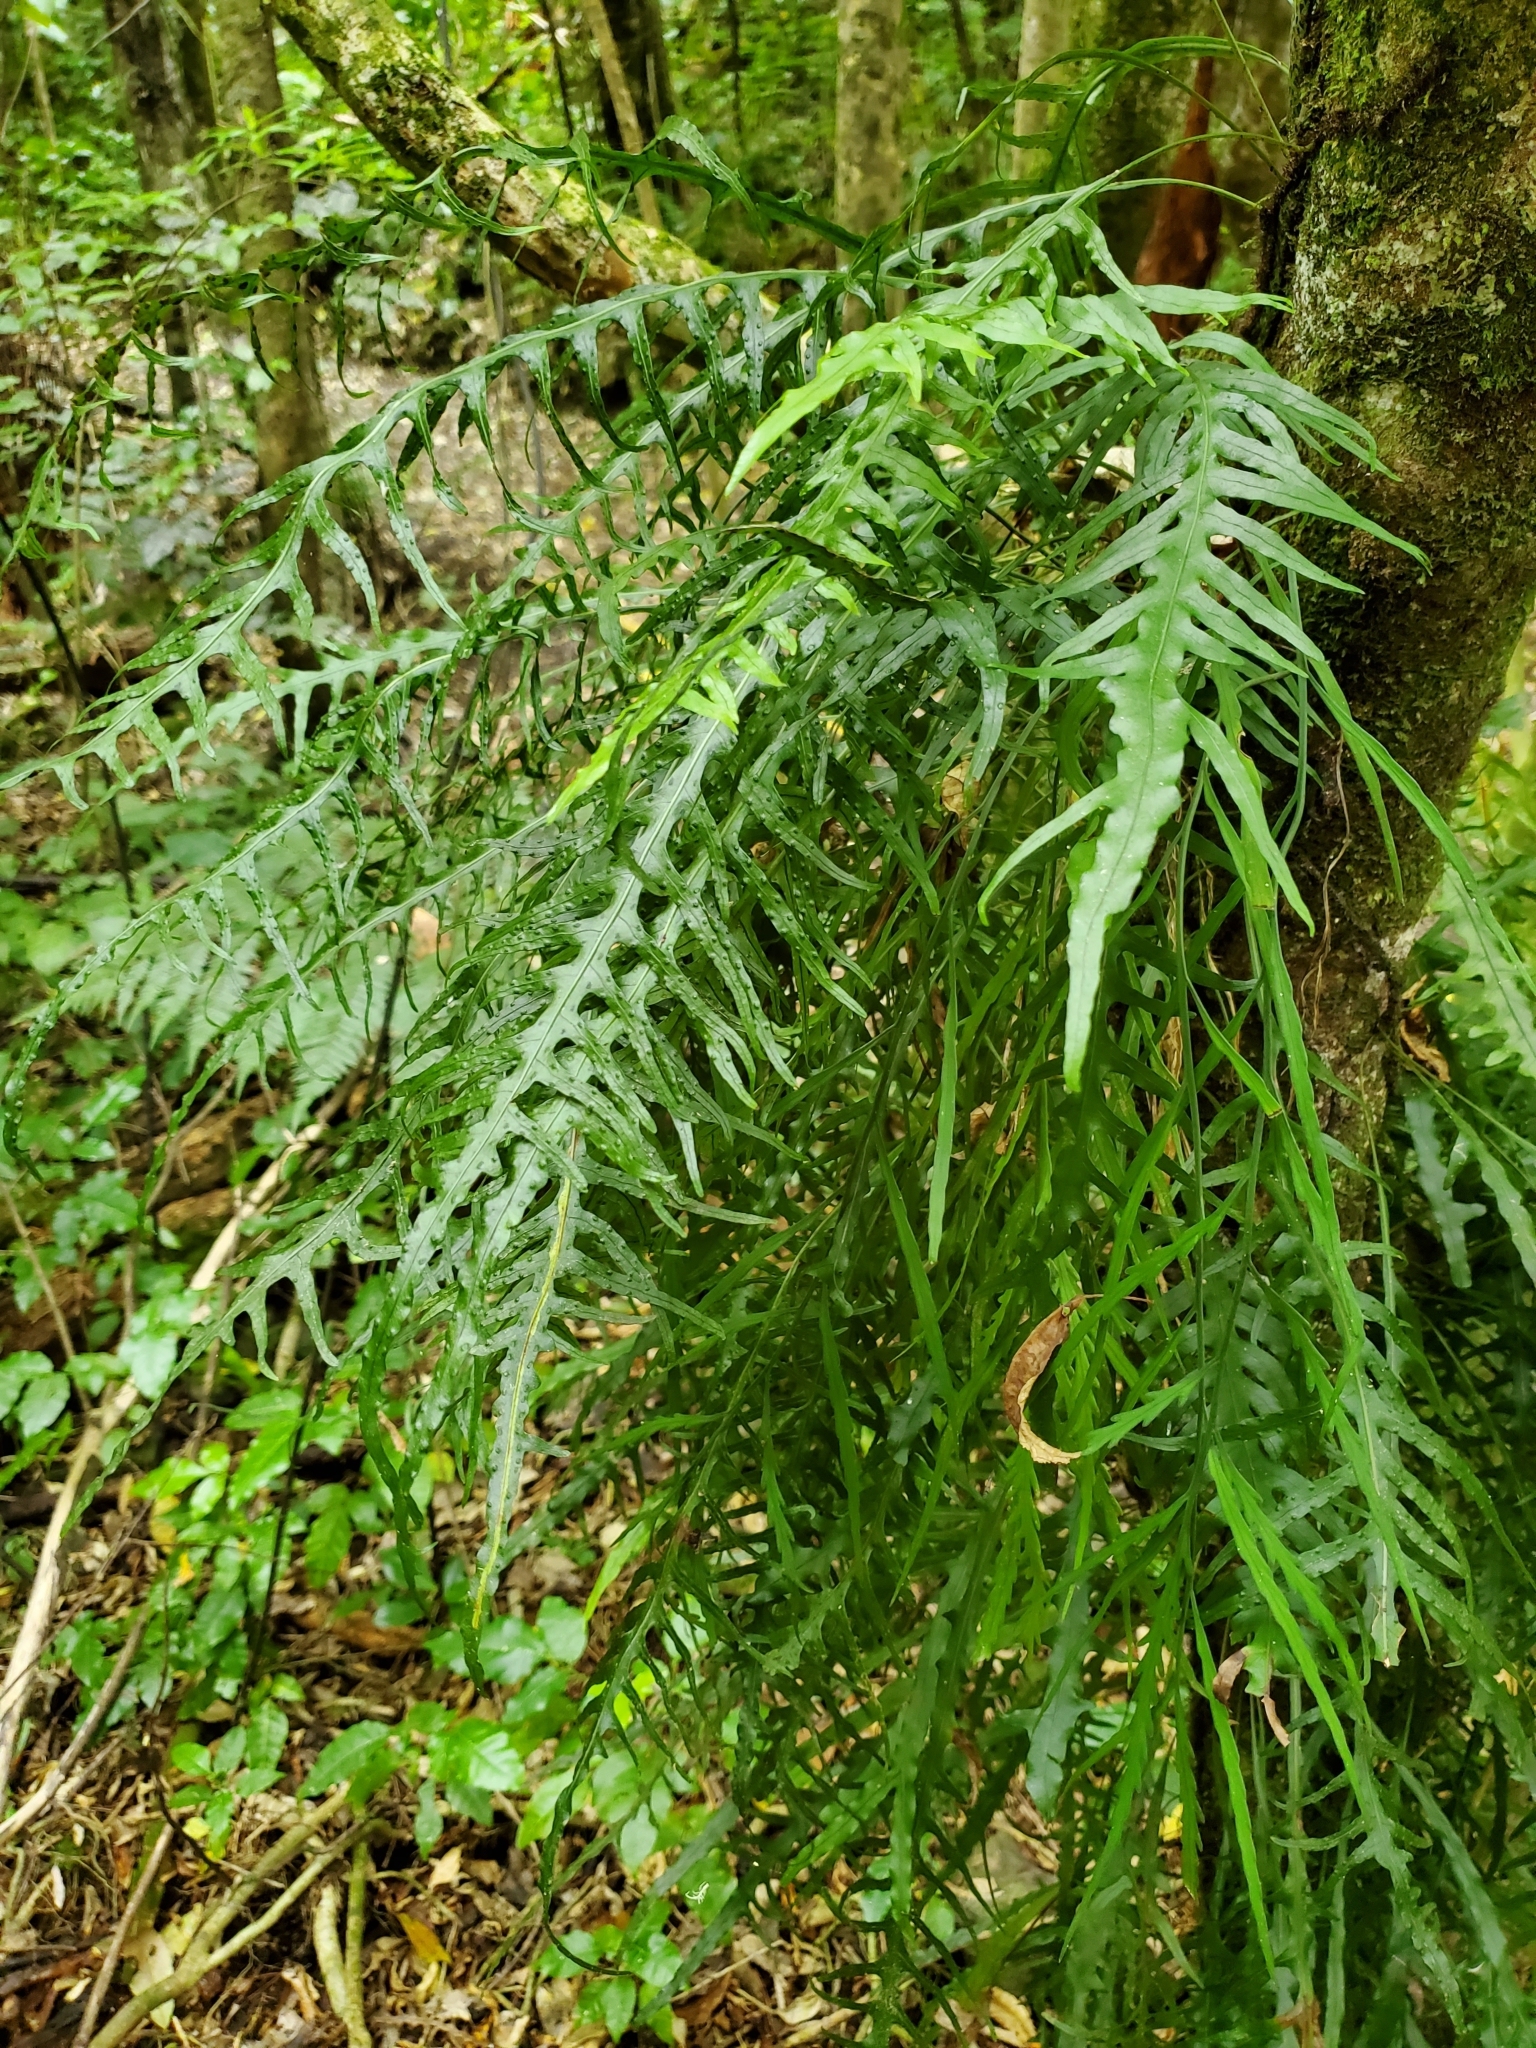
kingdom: Plantae
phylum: Tracheophyta
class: Polypodiopsida
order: Polypodiales
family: Polypodiaceae
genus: Lecanopteris
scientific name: Lecanopteris scandens
